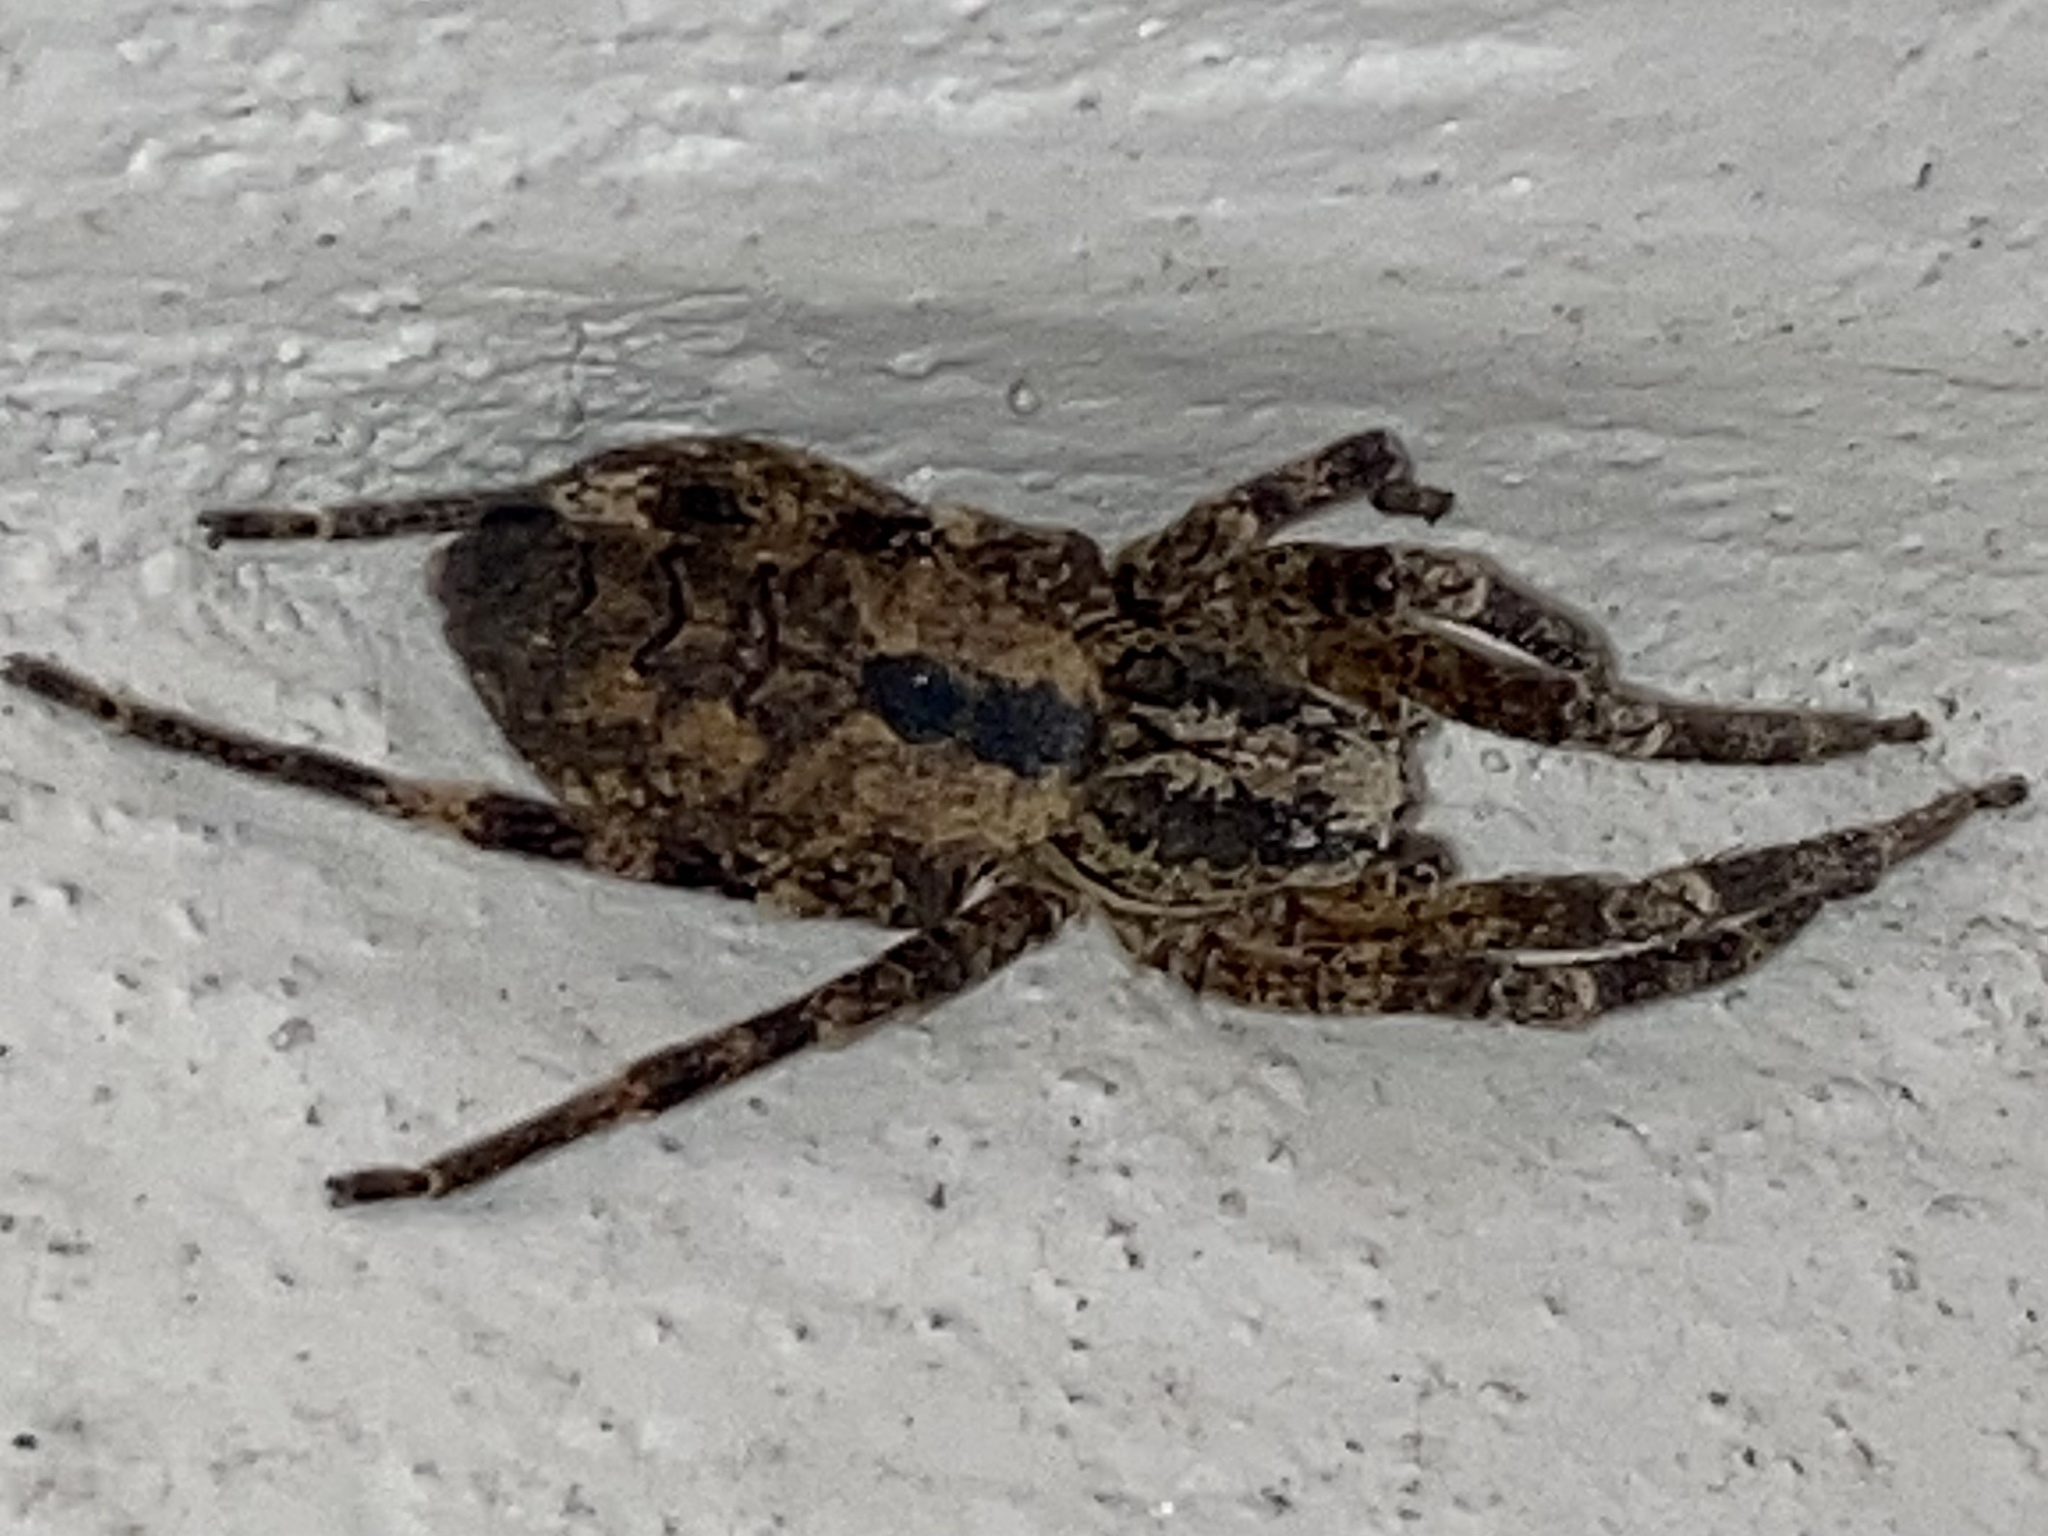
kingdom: Animalia
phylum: Arthropoda
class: Arachnida
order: Araneae
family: Zoropsidae
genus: Zoropsis
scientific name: Zoropsis spinimana
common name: Zoropsid spider
